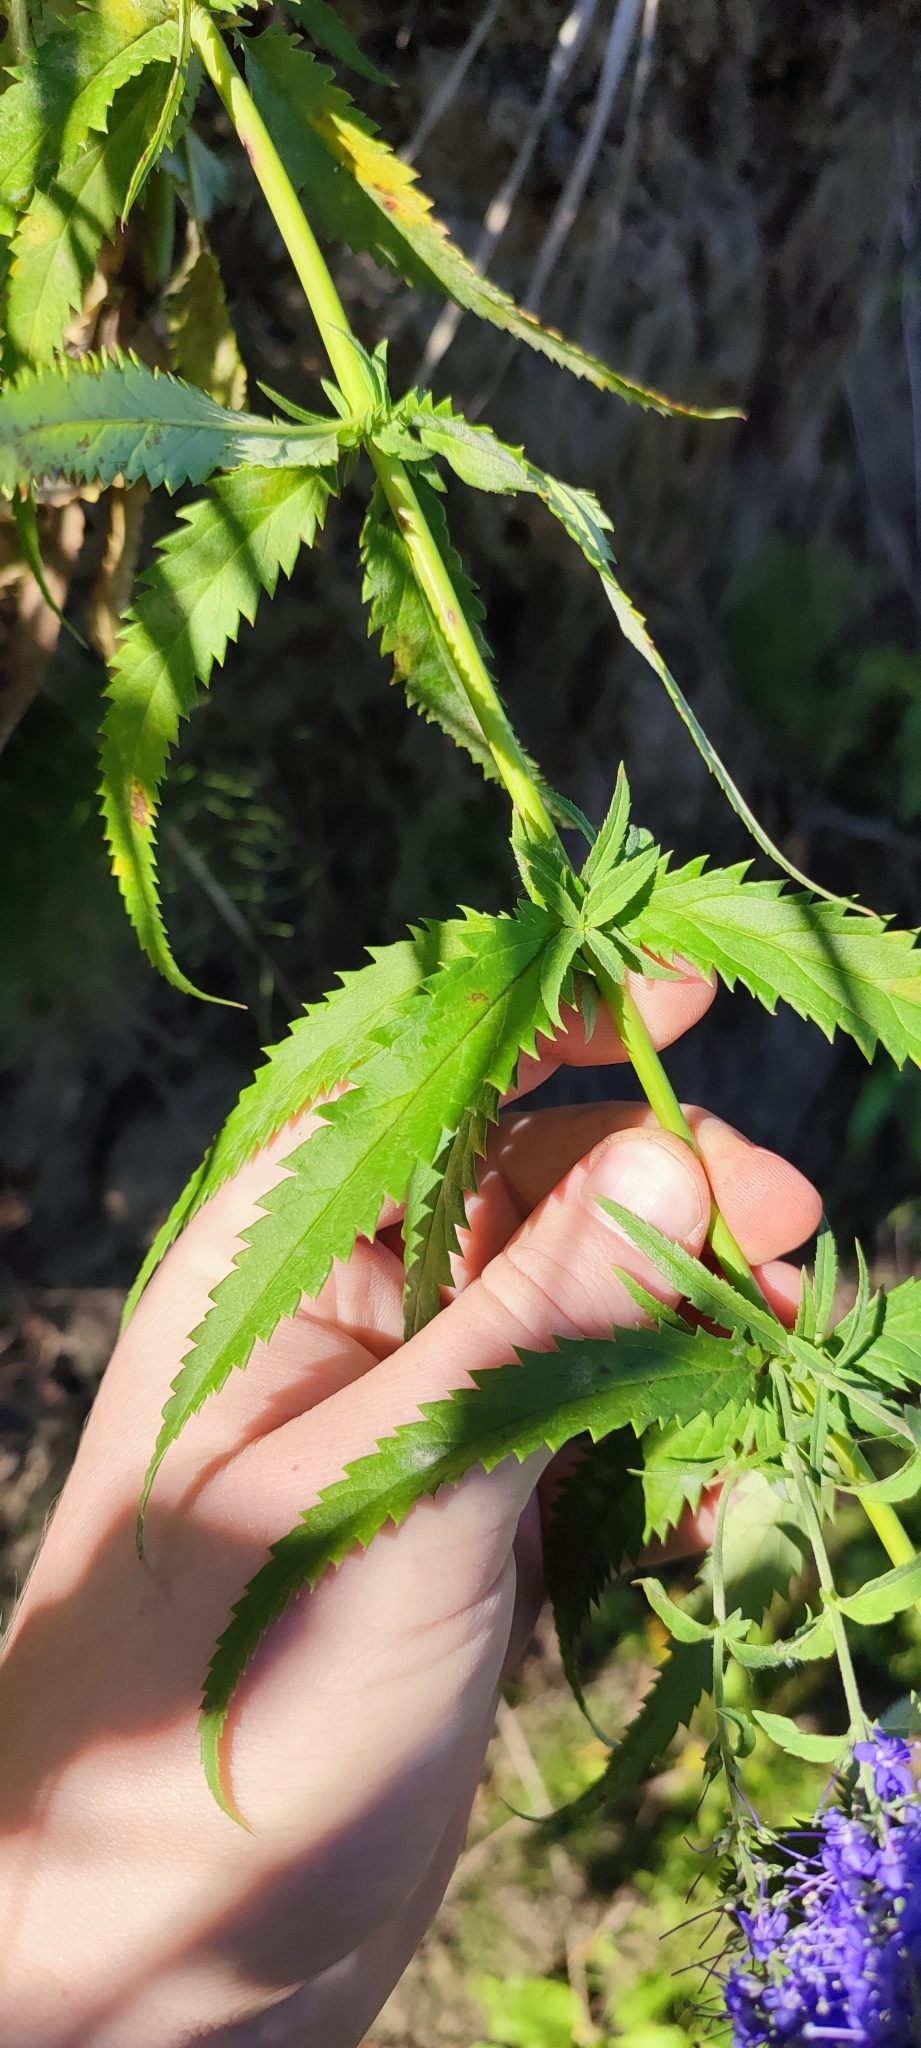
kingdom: Plantae
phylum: Tracheophyta
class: Magnoliopsida
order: Lamiales
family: Plantaginaceae
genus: Veronica
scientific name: Veronica longifolia
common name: Garden speedwell
